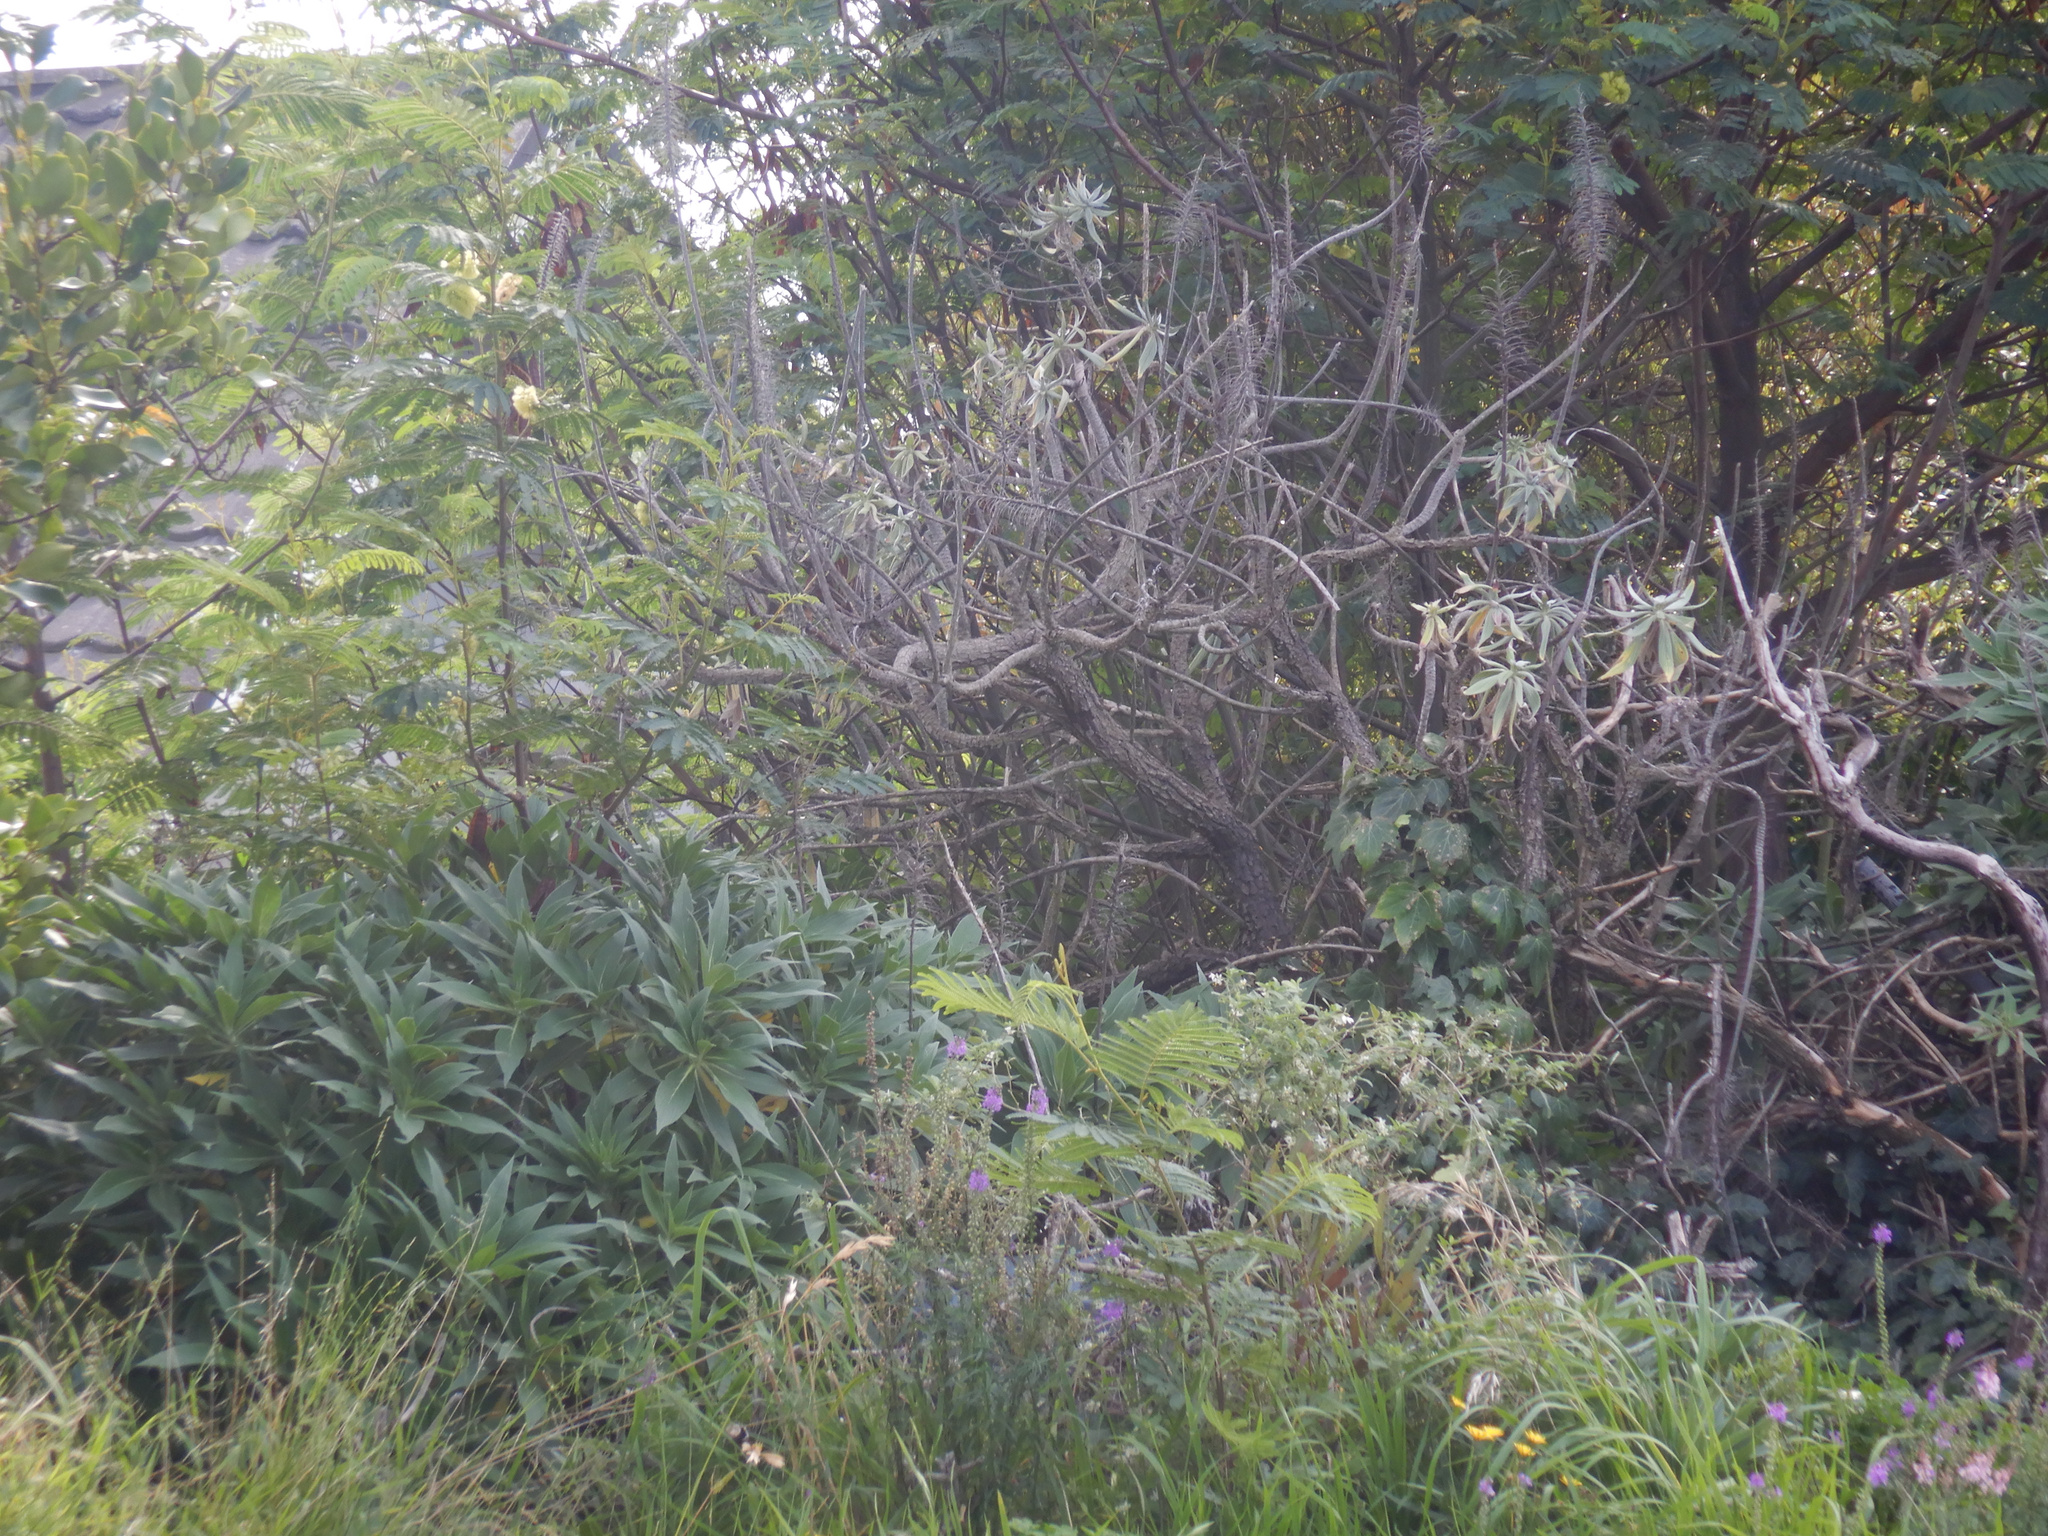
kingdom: Plantae
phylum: Tracheophyta
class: Magnoliopsida
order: Fabales
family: Fabaceae
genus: Paraserianthes
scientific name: Paraserianthes lophantha
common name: Plume albizia
